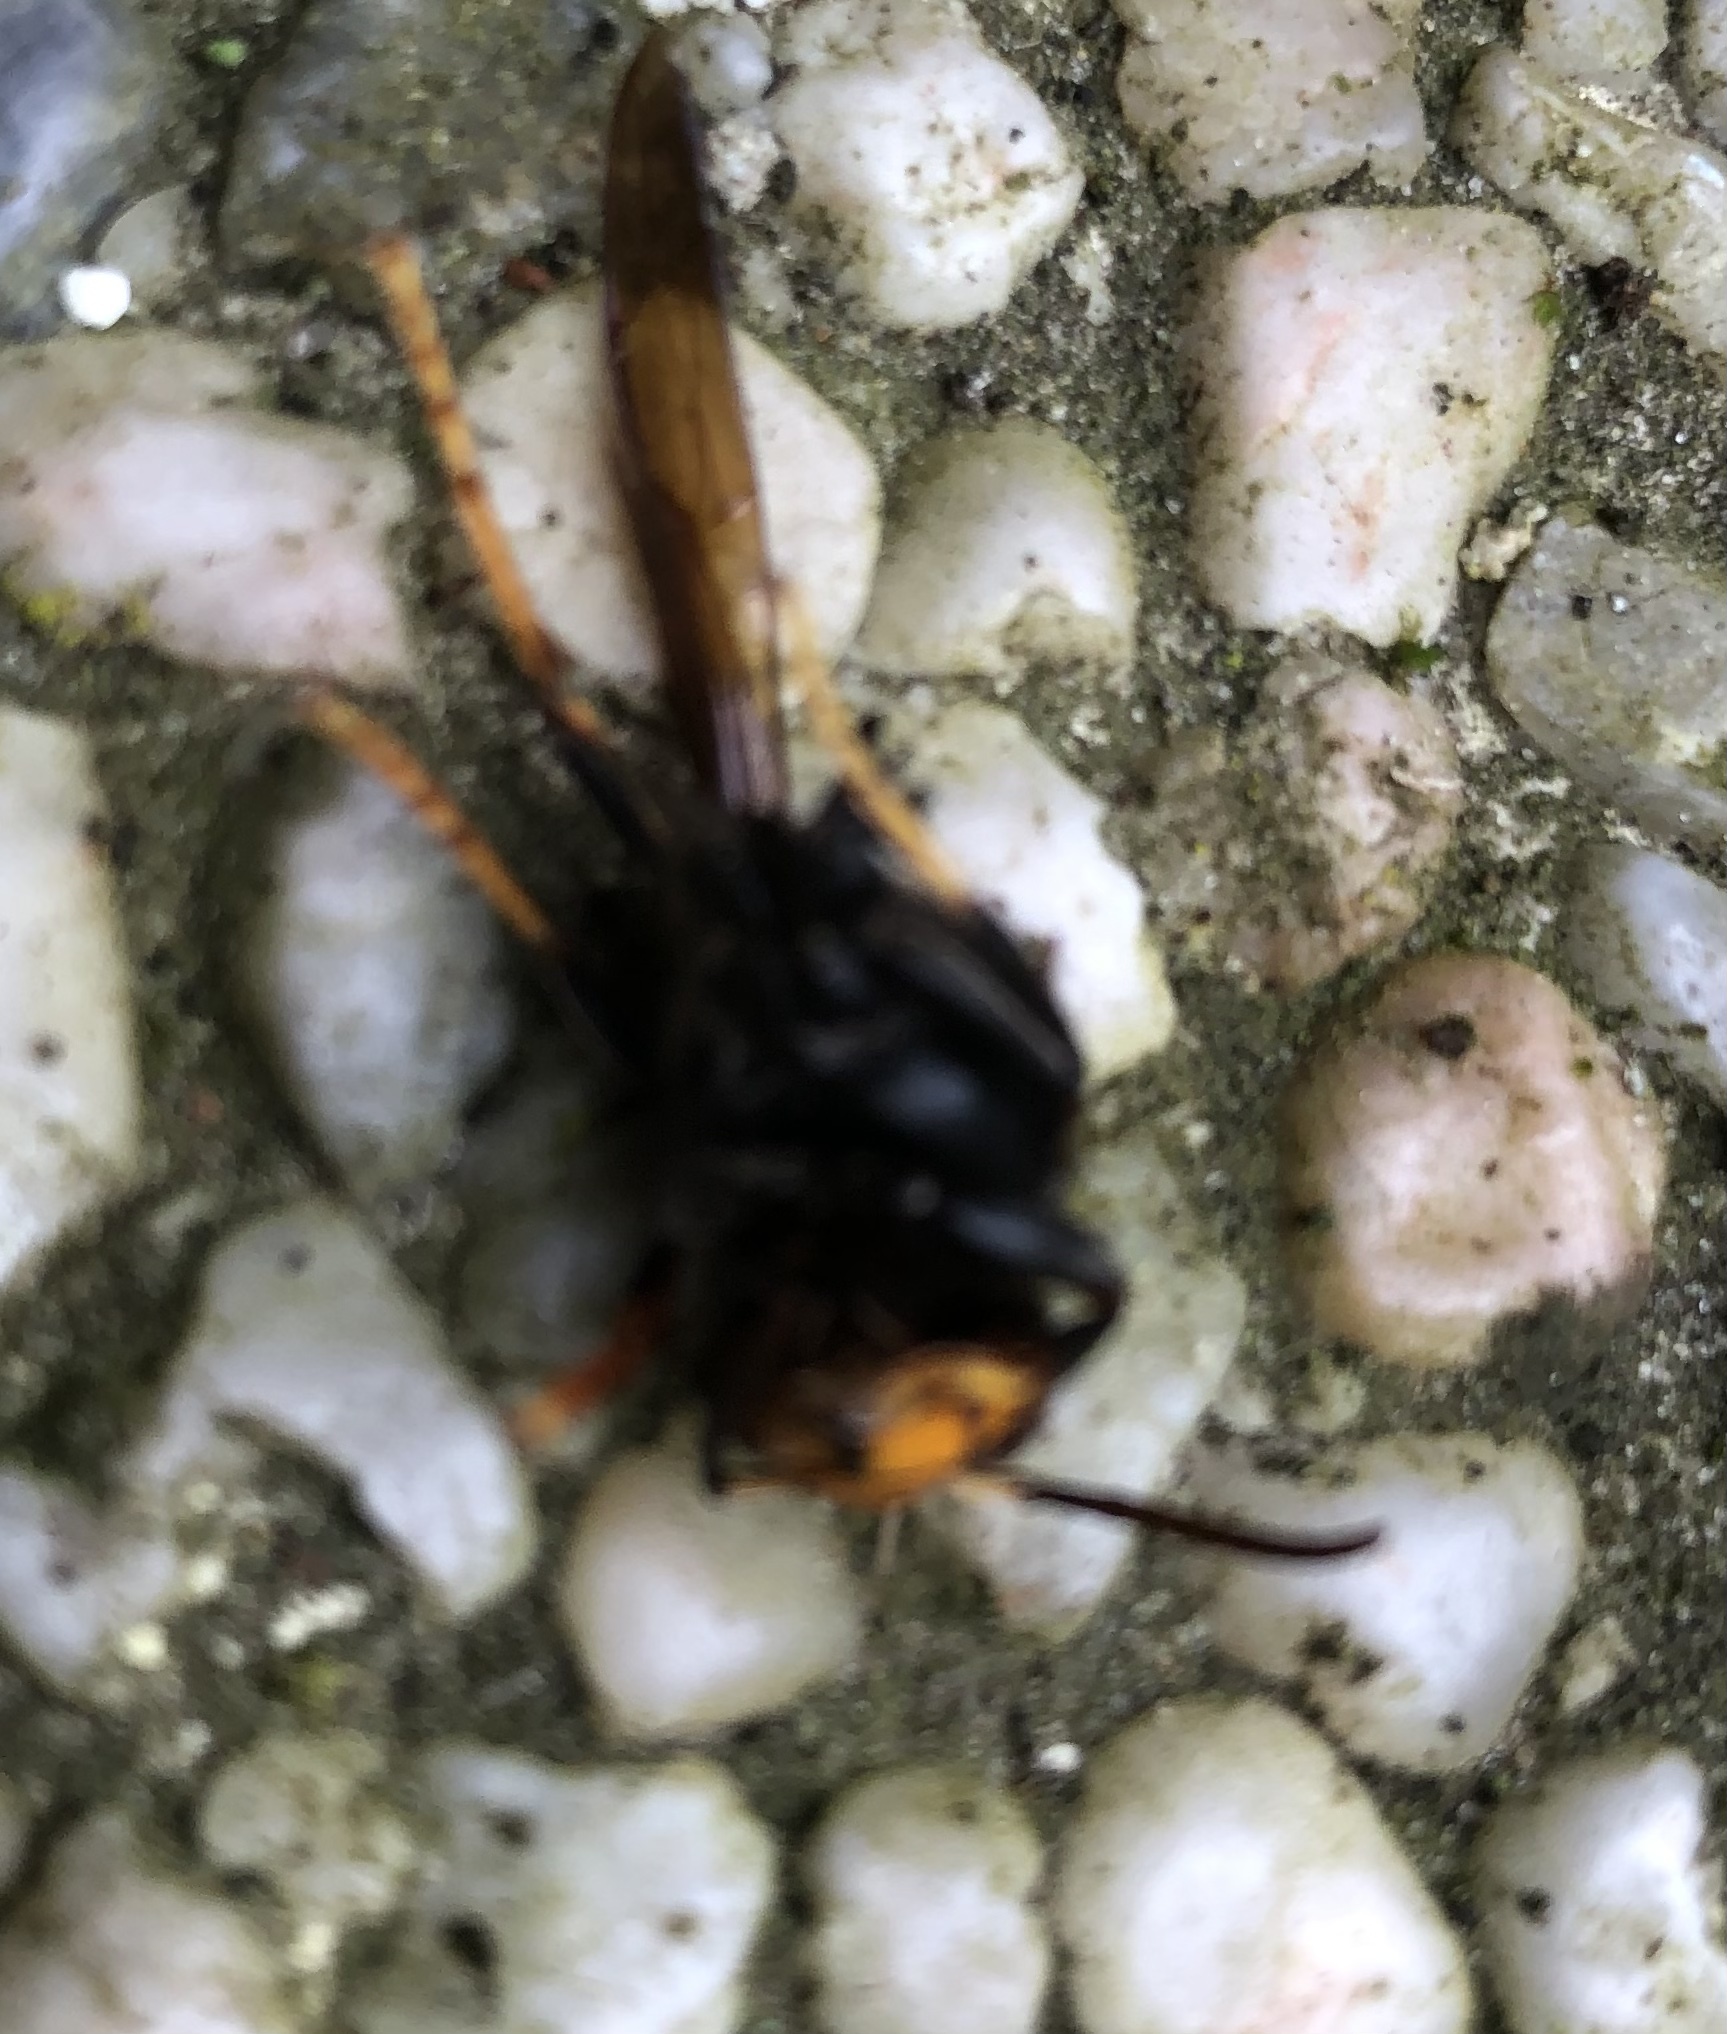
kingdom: Animalia
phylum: Arthropoda
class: Insecta
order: Hymenoptera
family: Vespidae
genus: Vespa
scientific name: Vespa velutina
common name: Asian hornet
